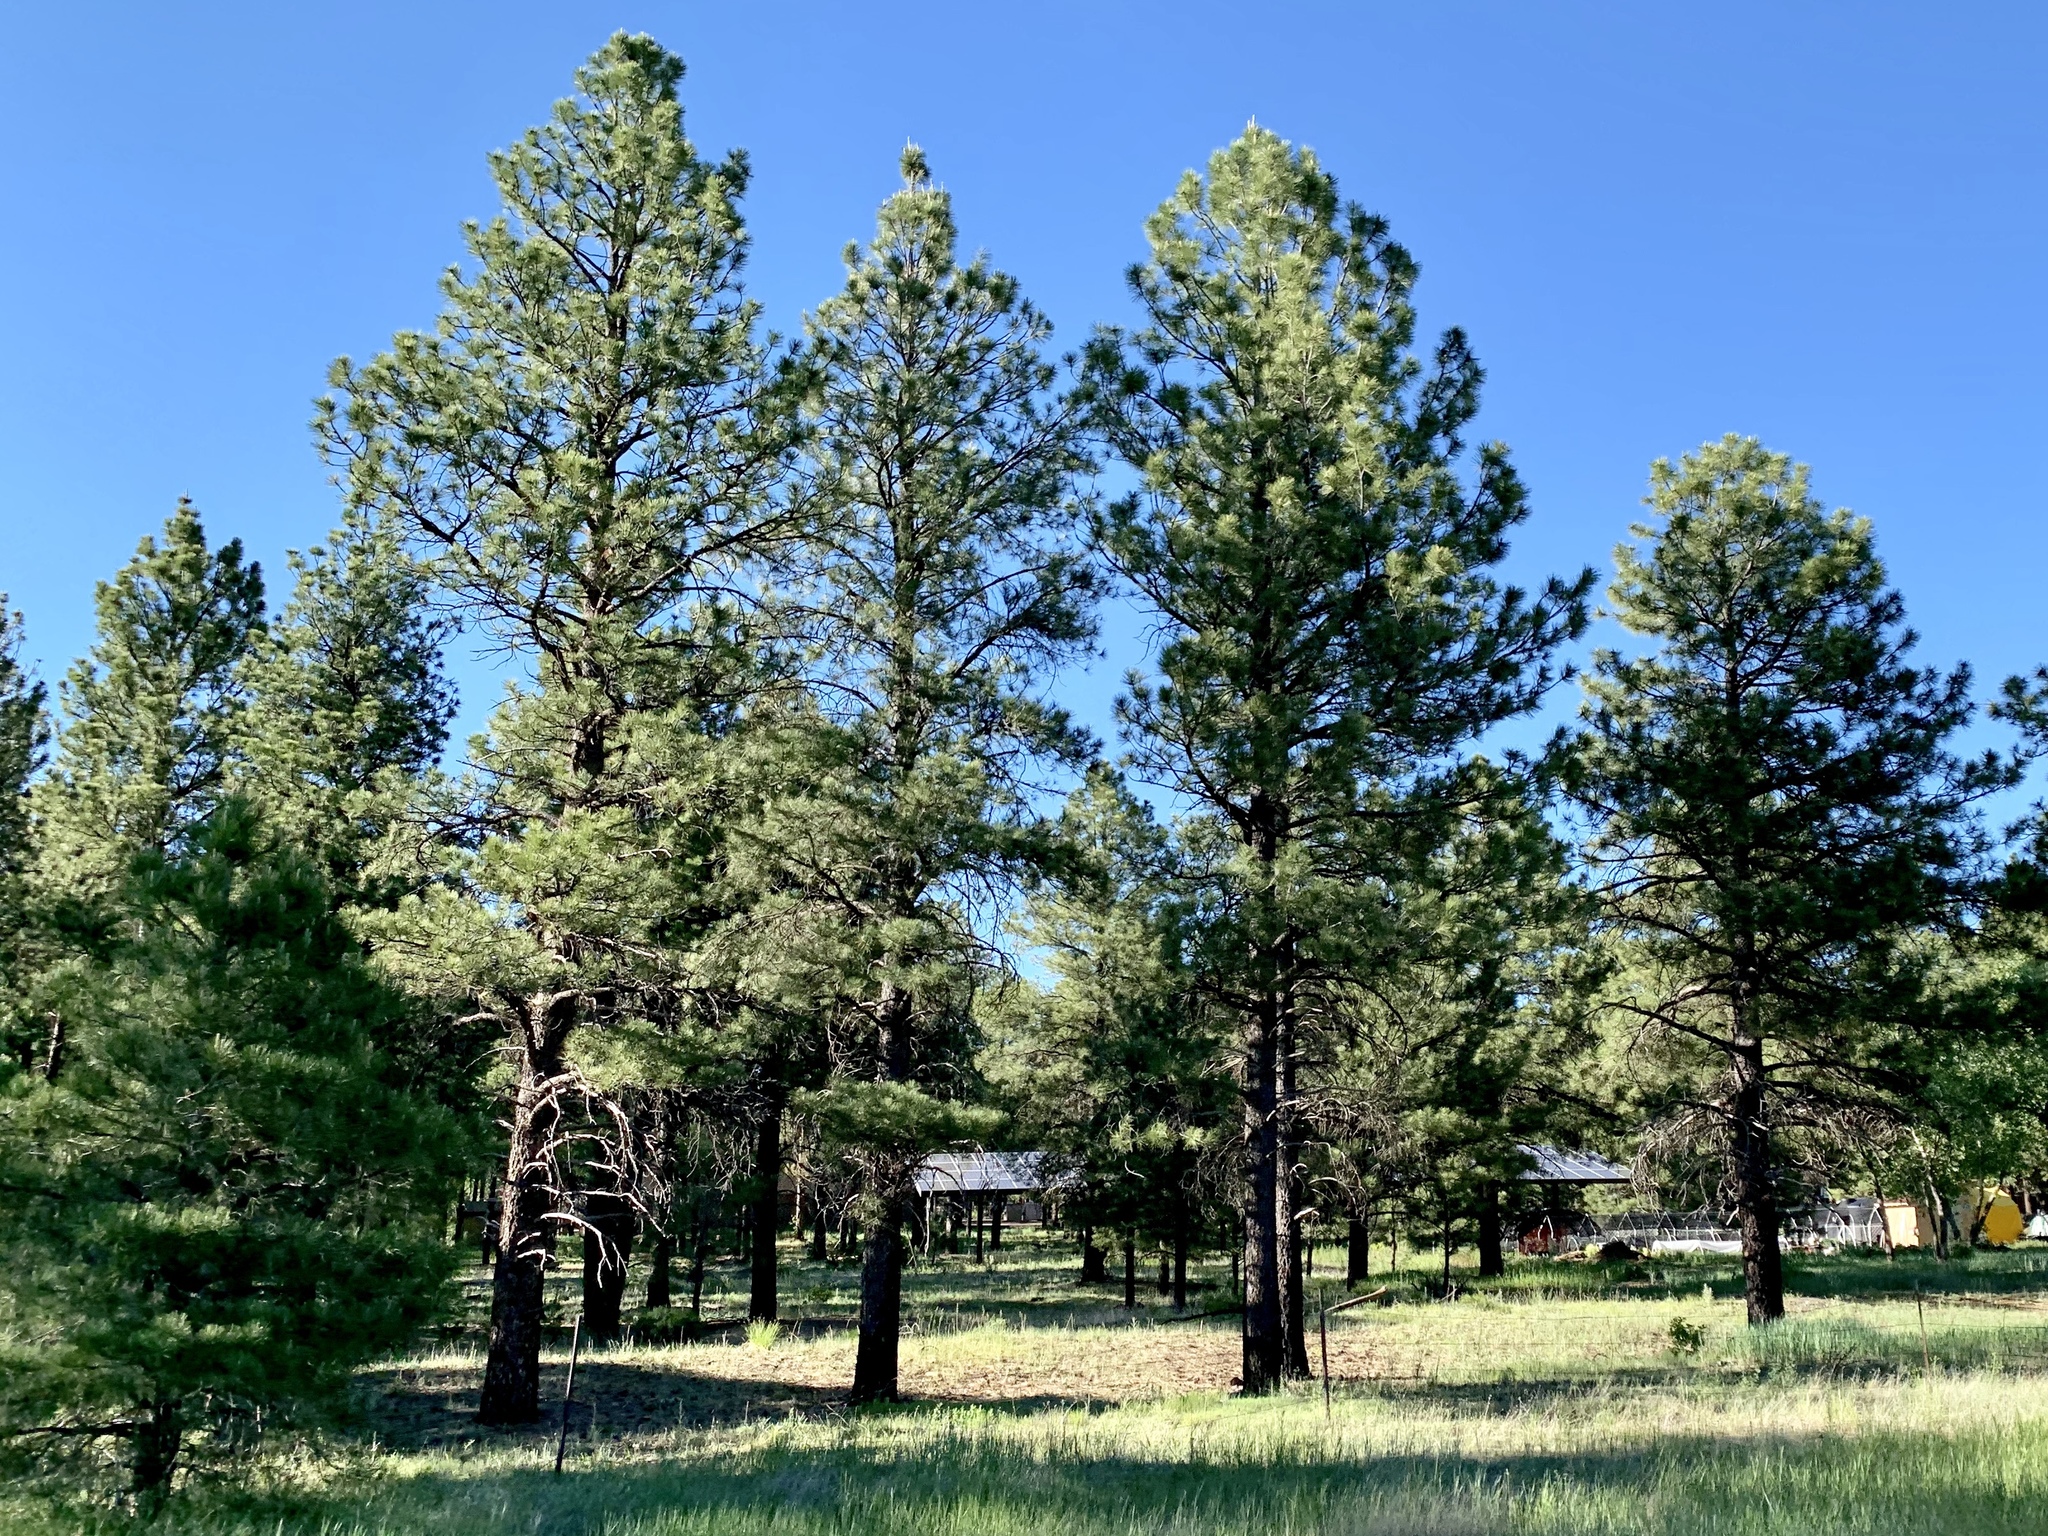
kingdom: Plantae
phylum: Tracheophyta
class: Pinopsida
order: Pinales
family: Pinaceae
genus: Pinus
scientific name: Pinus ponderosa
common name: Western yellow-pine
